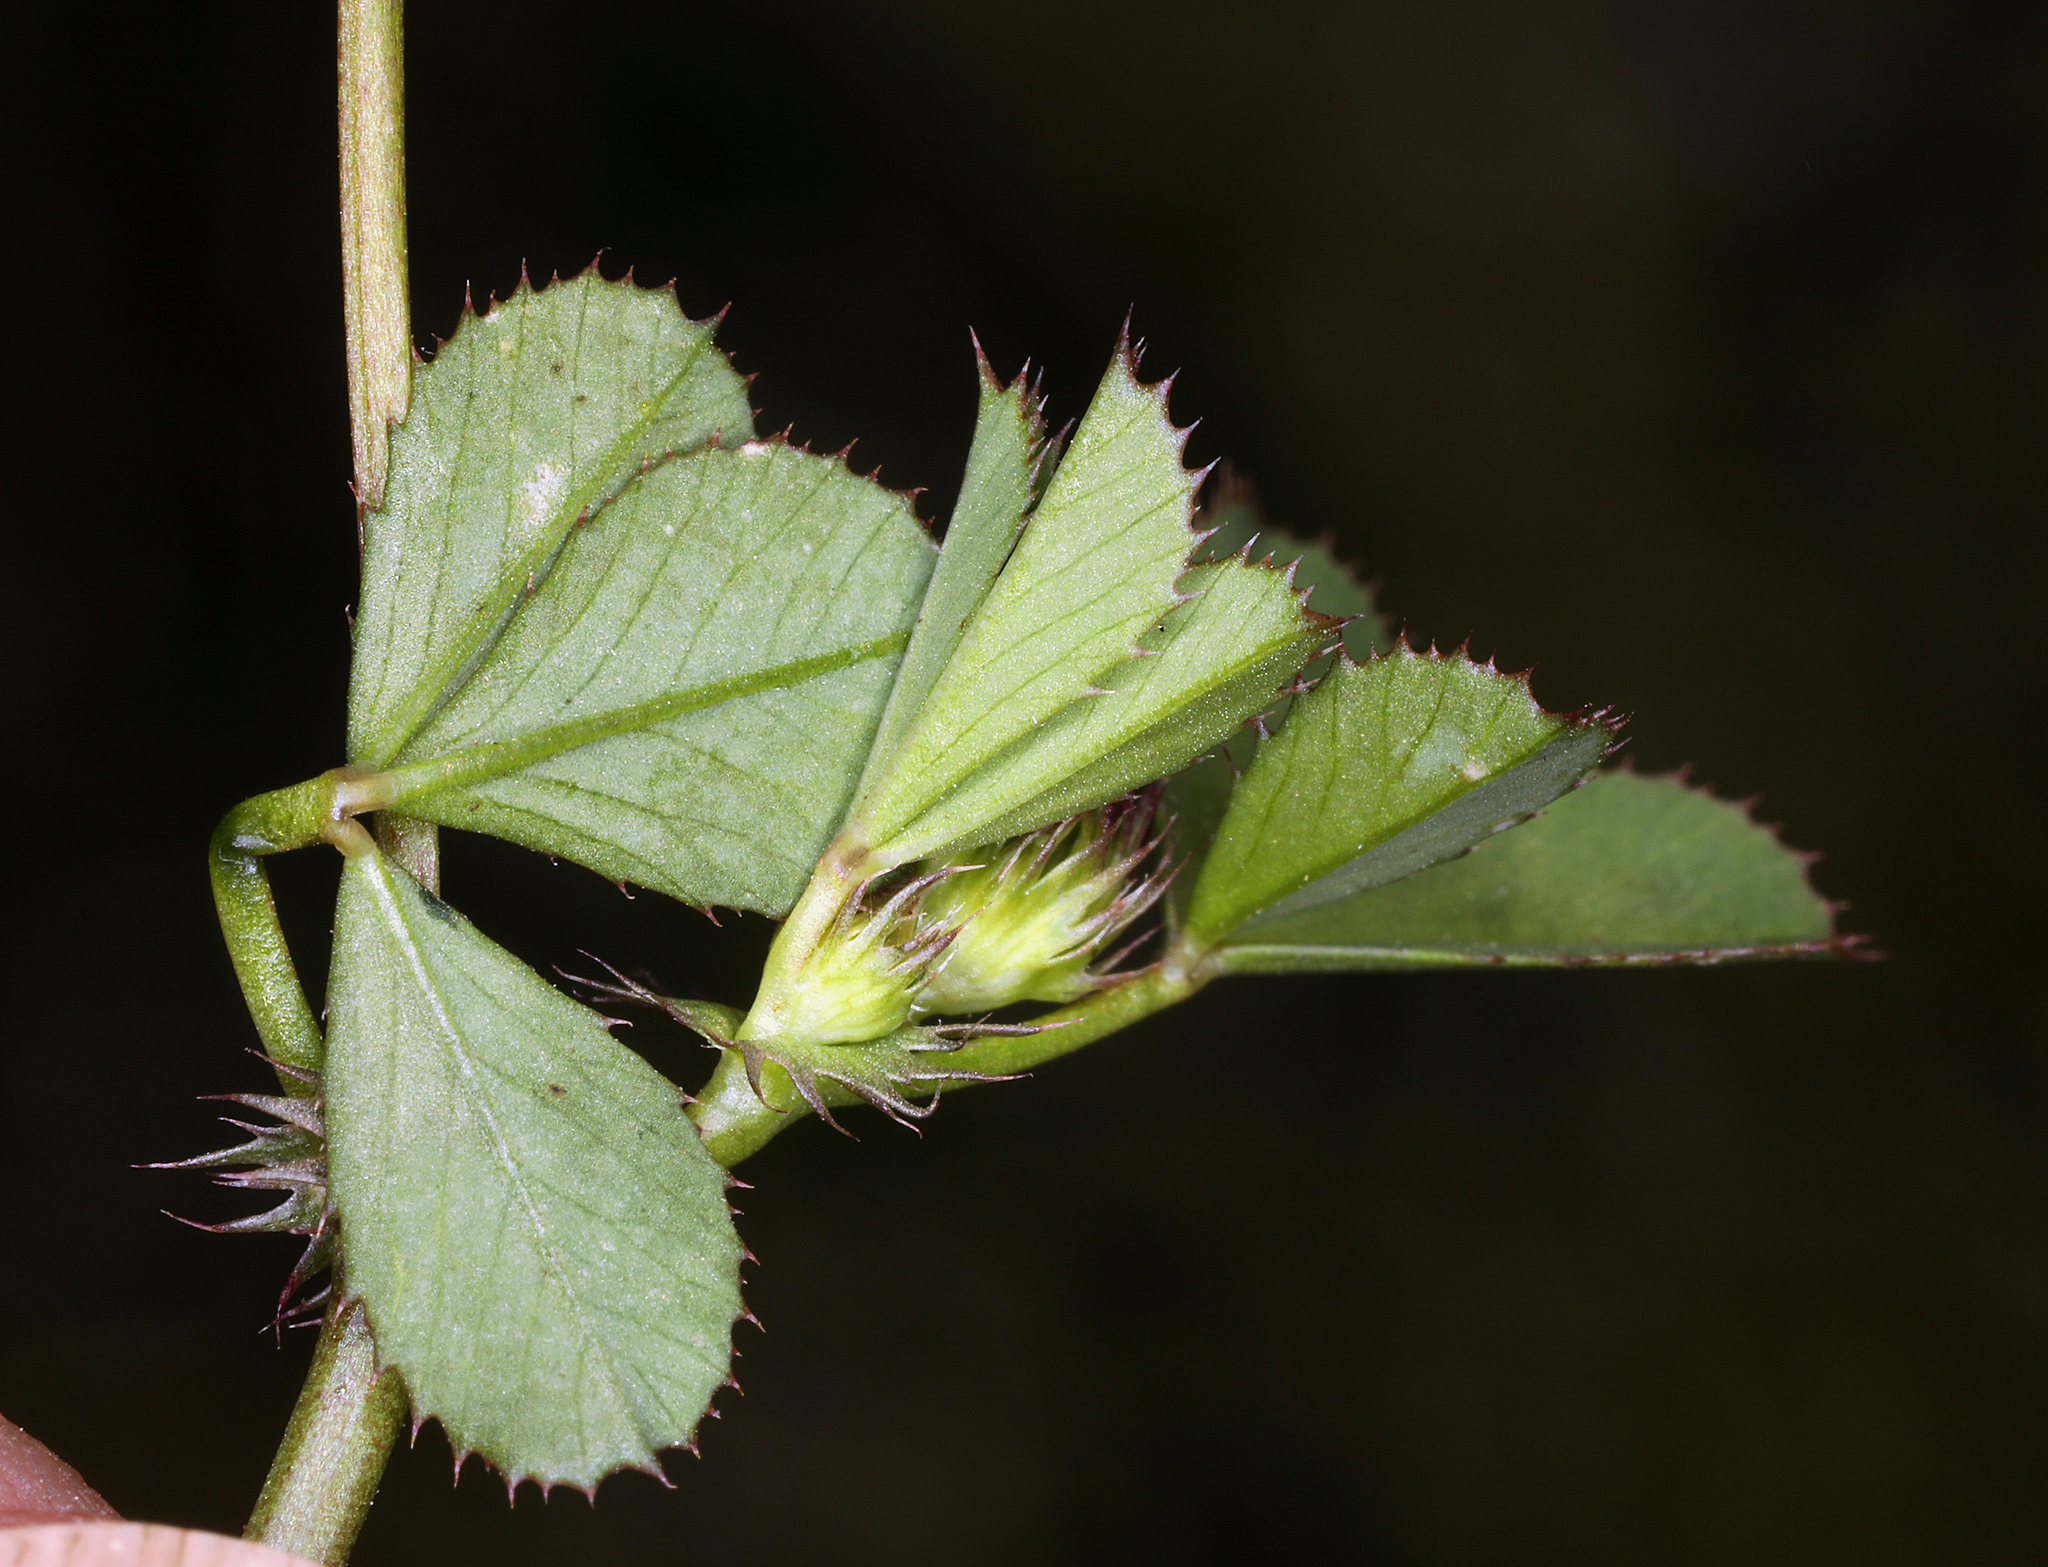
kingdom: Plantae
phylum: Tracheophyta
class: Magnoliopsida
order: Fabales
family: Fabaceae
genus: Trifolium
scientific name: Trifolium variegatum
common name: Whitetip clover
